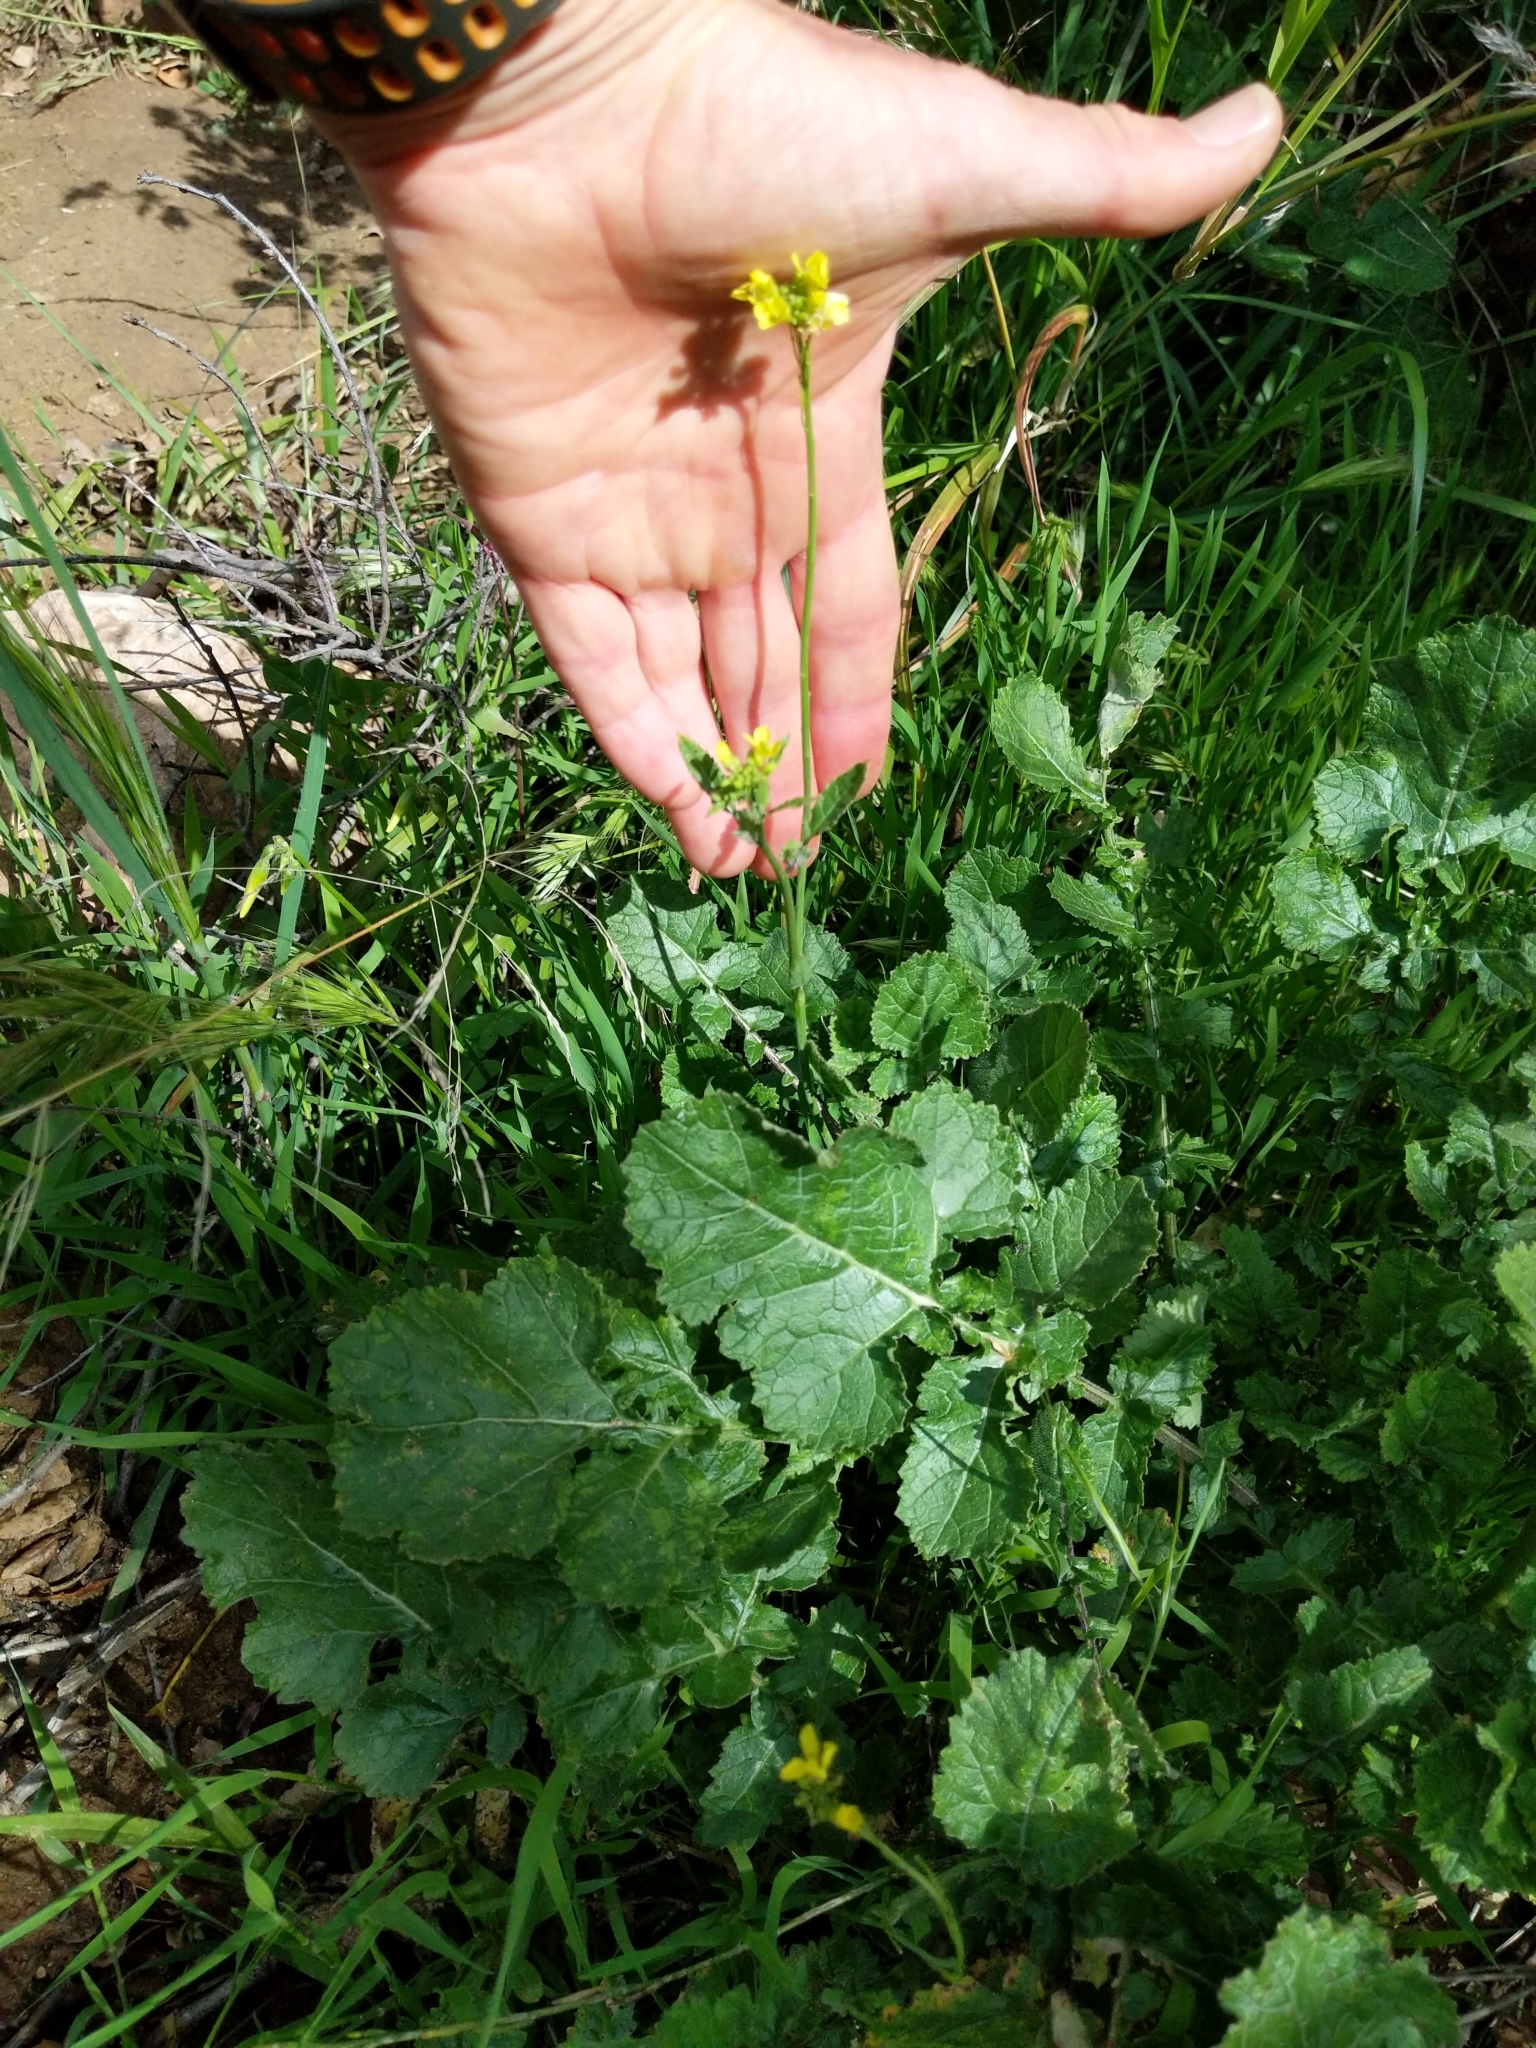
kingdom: Plantae
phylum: Tracheophyta
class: Magnoliopsida
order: Brassicales
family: Brassicaceae
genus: Hirschfeldia
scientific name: Hirschfeldia incana
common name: Hoary mustard
